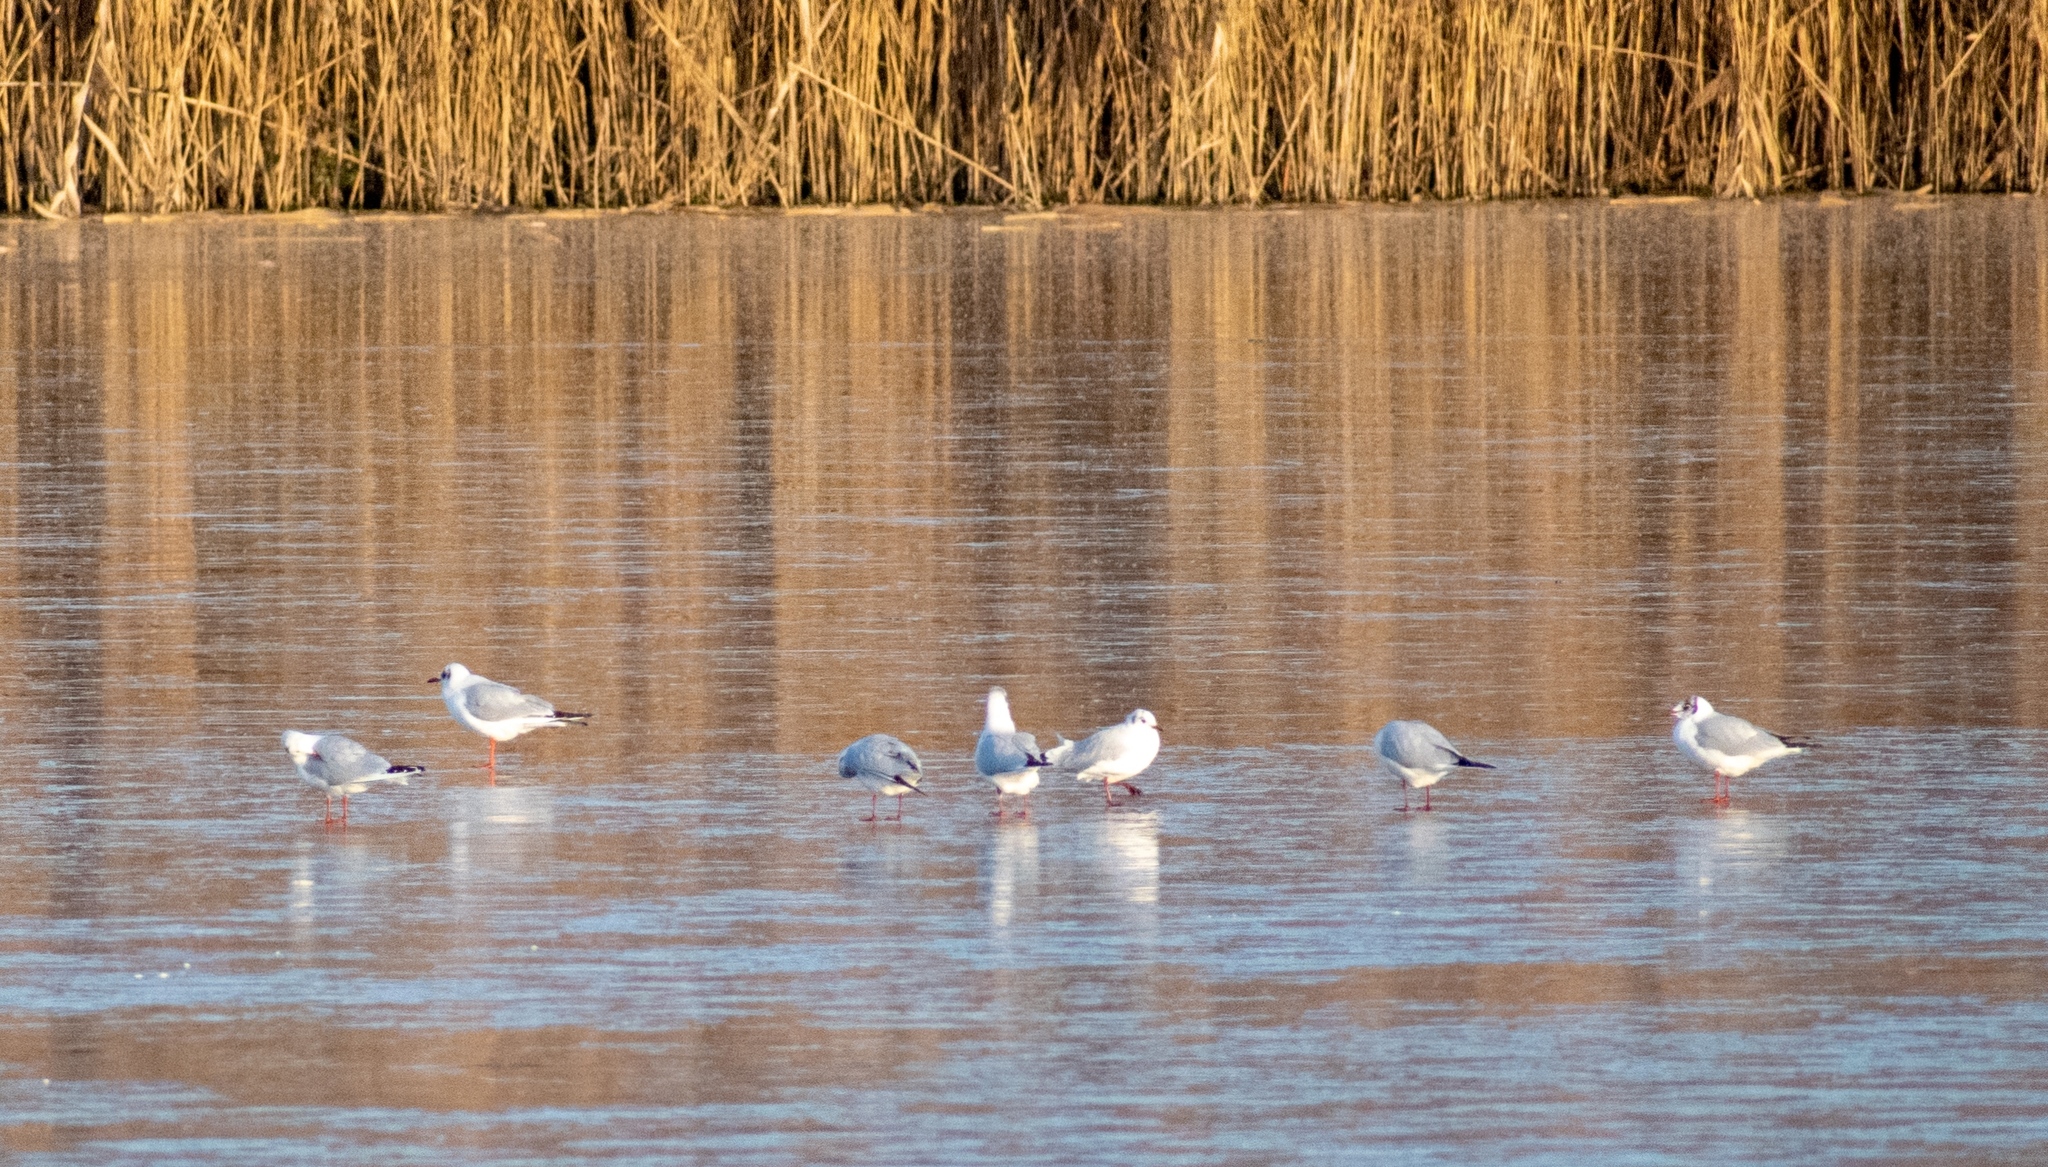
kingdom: Animalia
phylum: Chordata
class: Aves
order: Charadriiformes
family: Laridae
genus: Chroicocephalus
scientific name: Chroicocephalus ridibundus
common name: Black-headed gull
